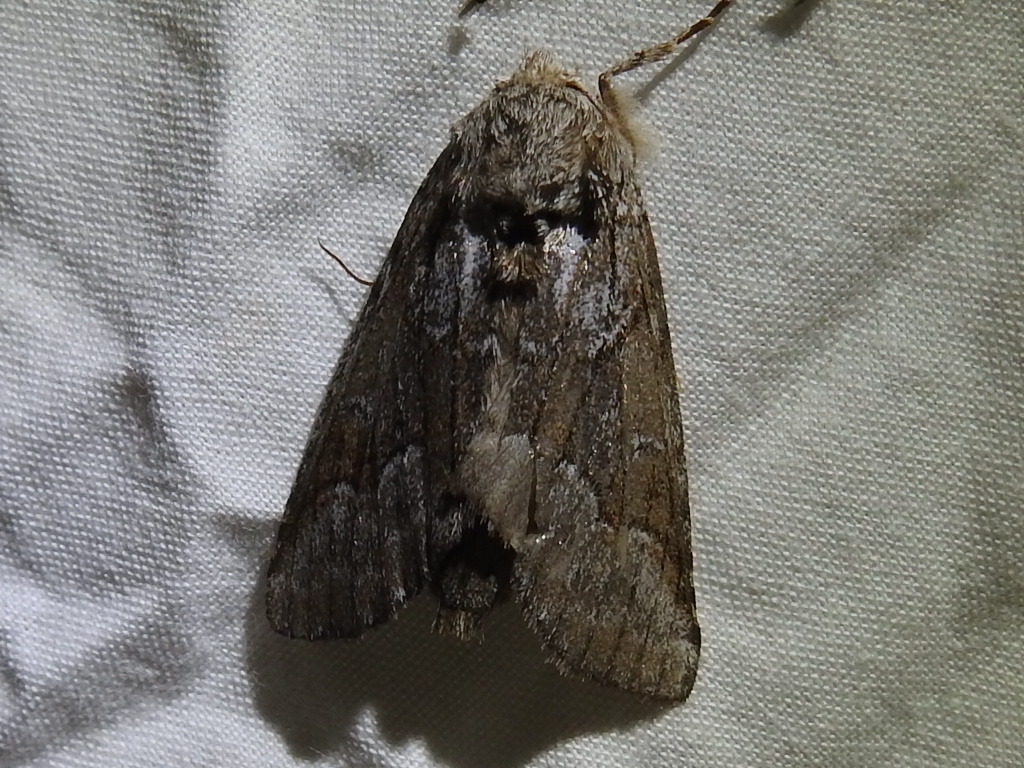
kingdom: Animalia
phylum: Arthropoda
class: Insecta
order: Lepidoptera
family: Notodontidae
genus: Lochmaeus
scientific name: Lochmaeus bilineata
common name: Double-lined prominent
